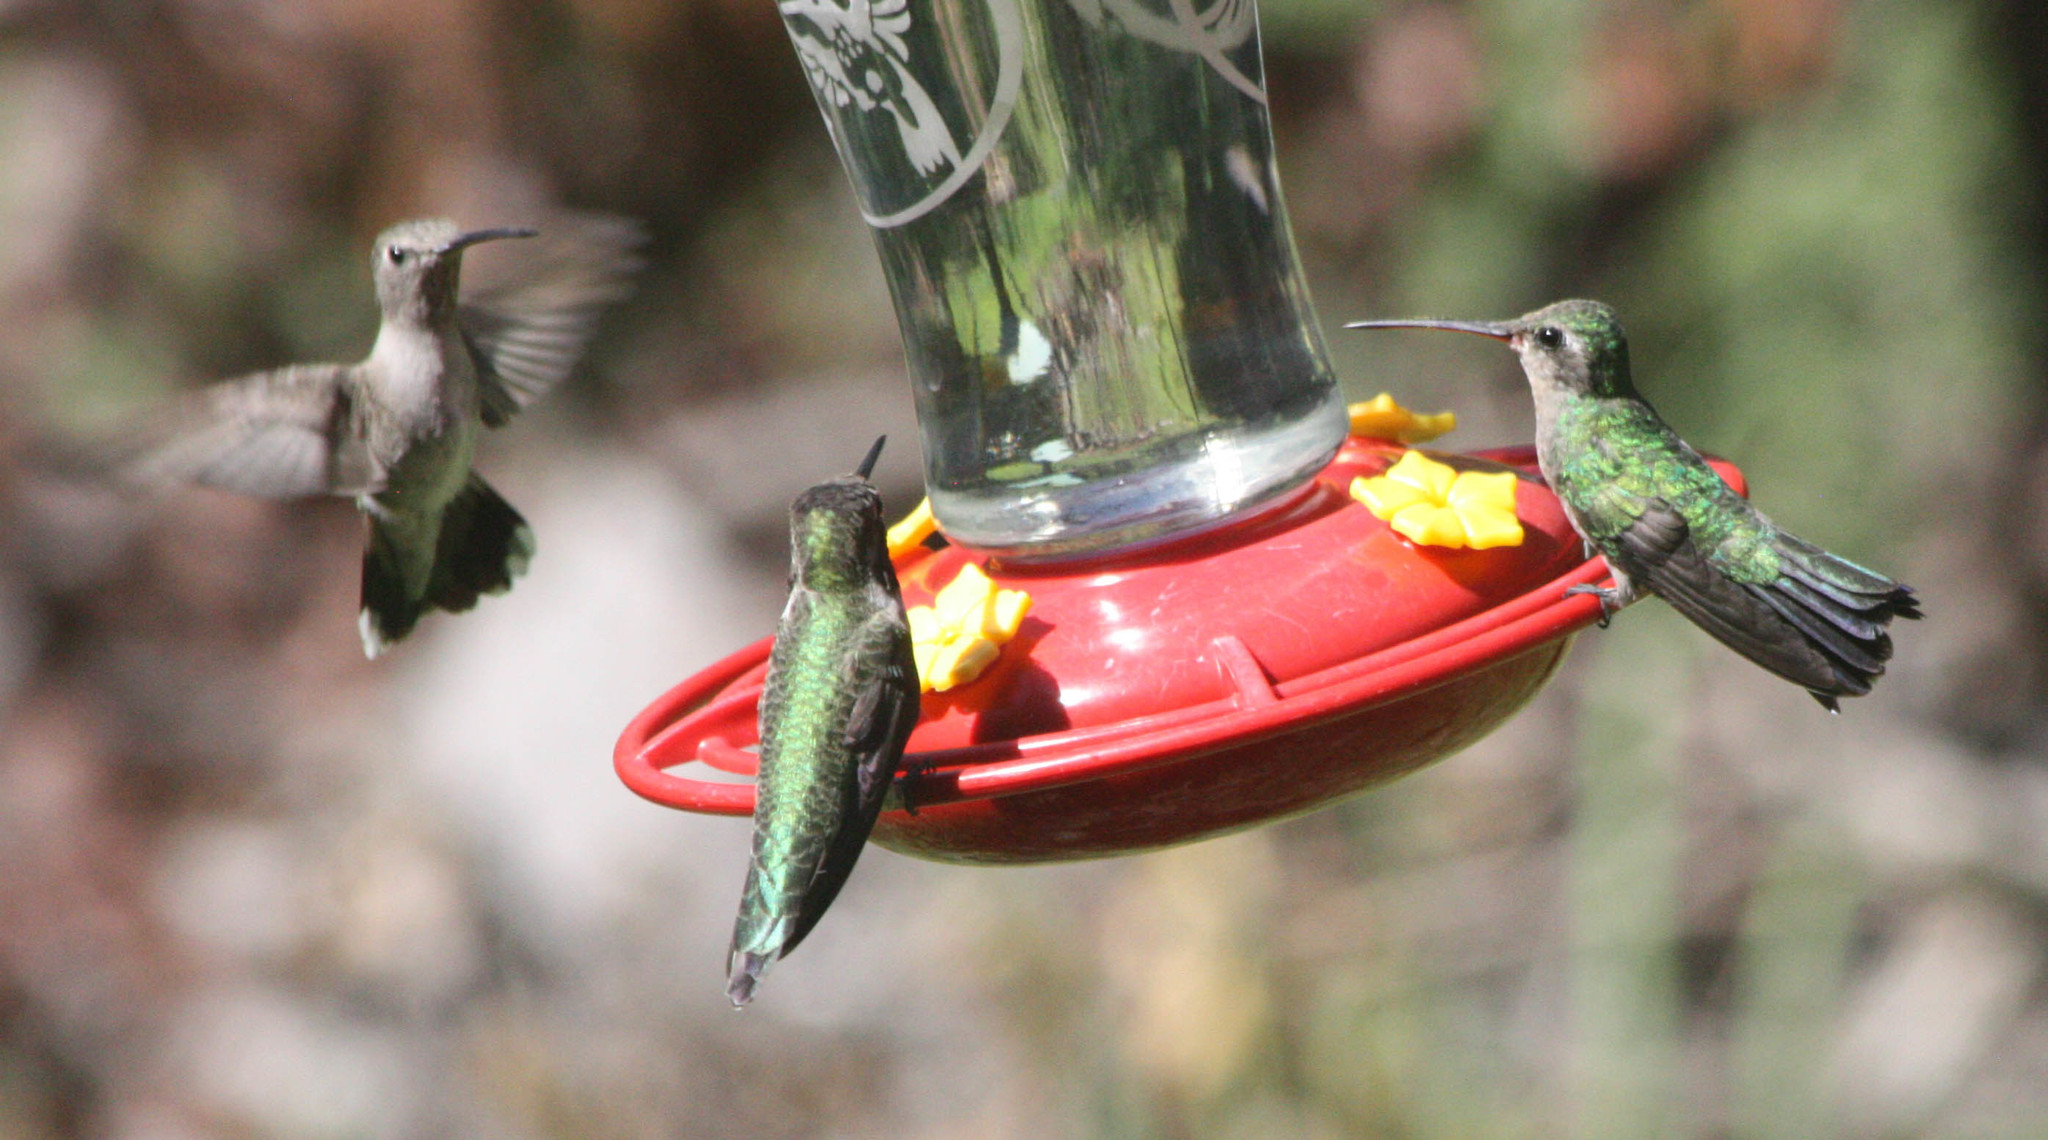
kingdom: Animalia
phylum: Chordata
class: Aves
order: Apodiformes
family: Trochilidae
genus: Cynanthus
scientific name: Cynanthus latirostris
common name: Broad-billed hummingbird
